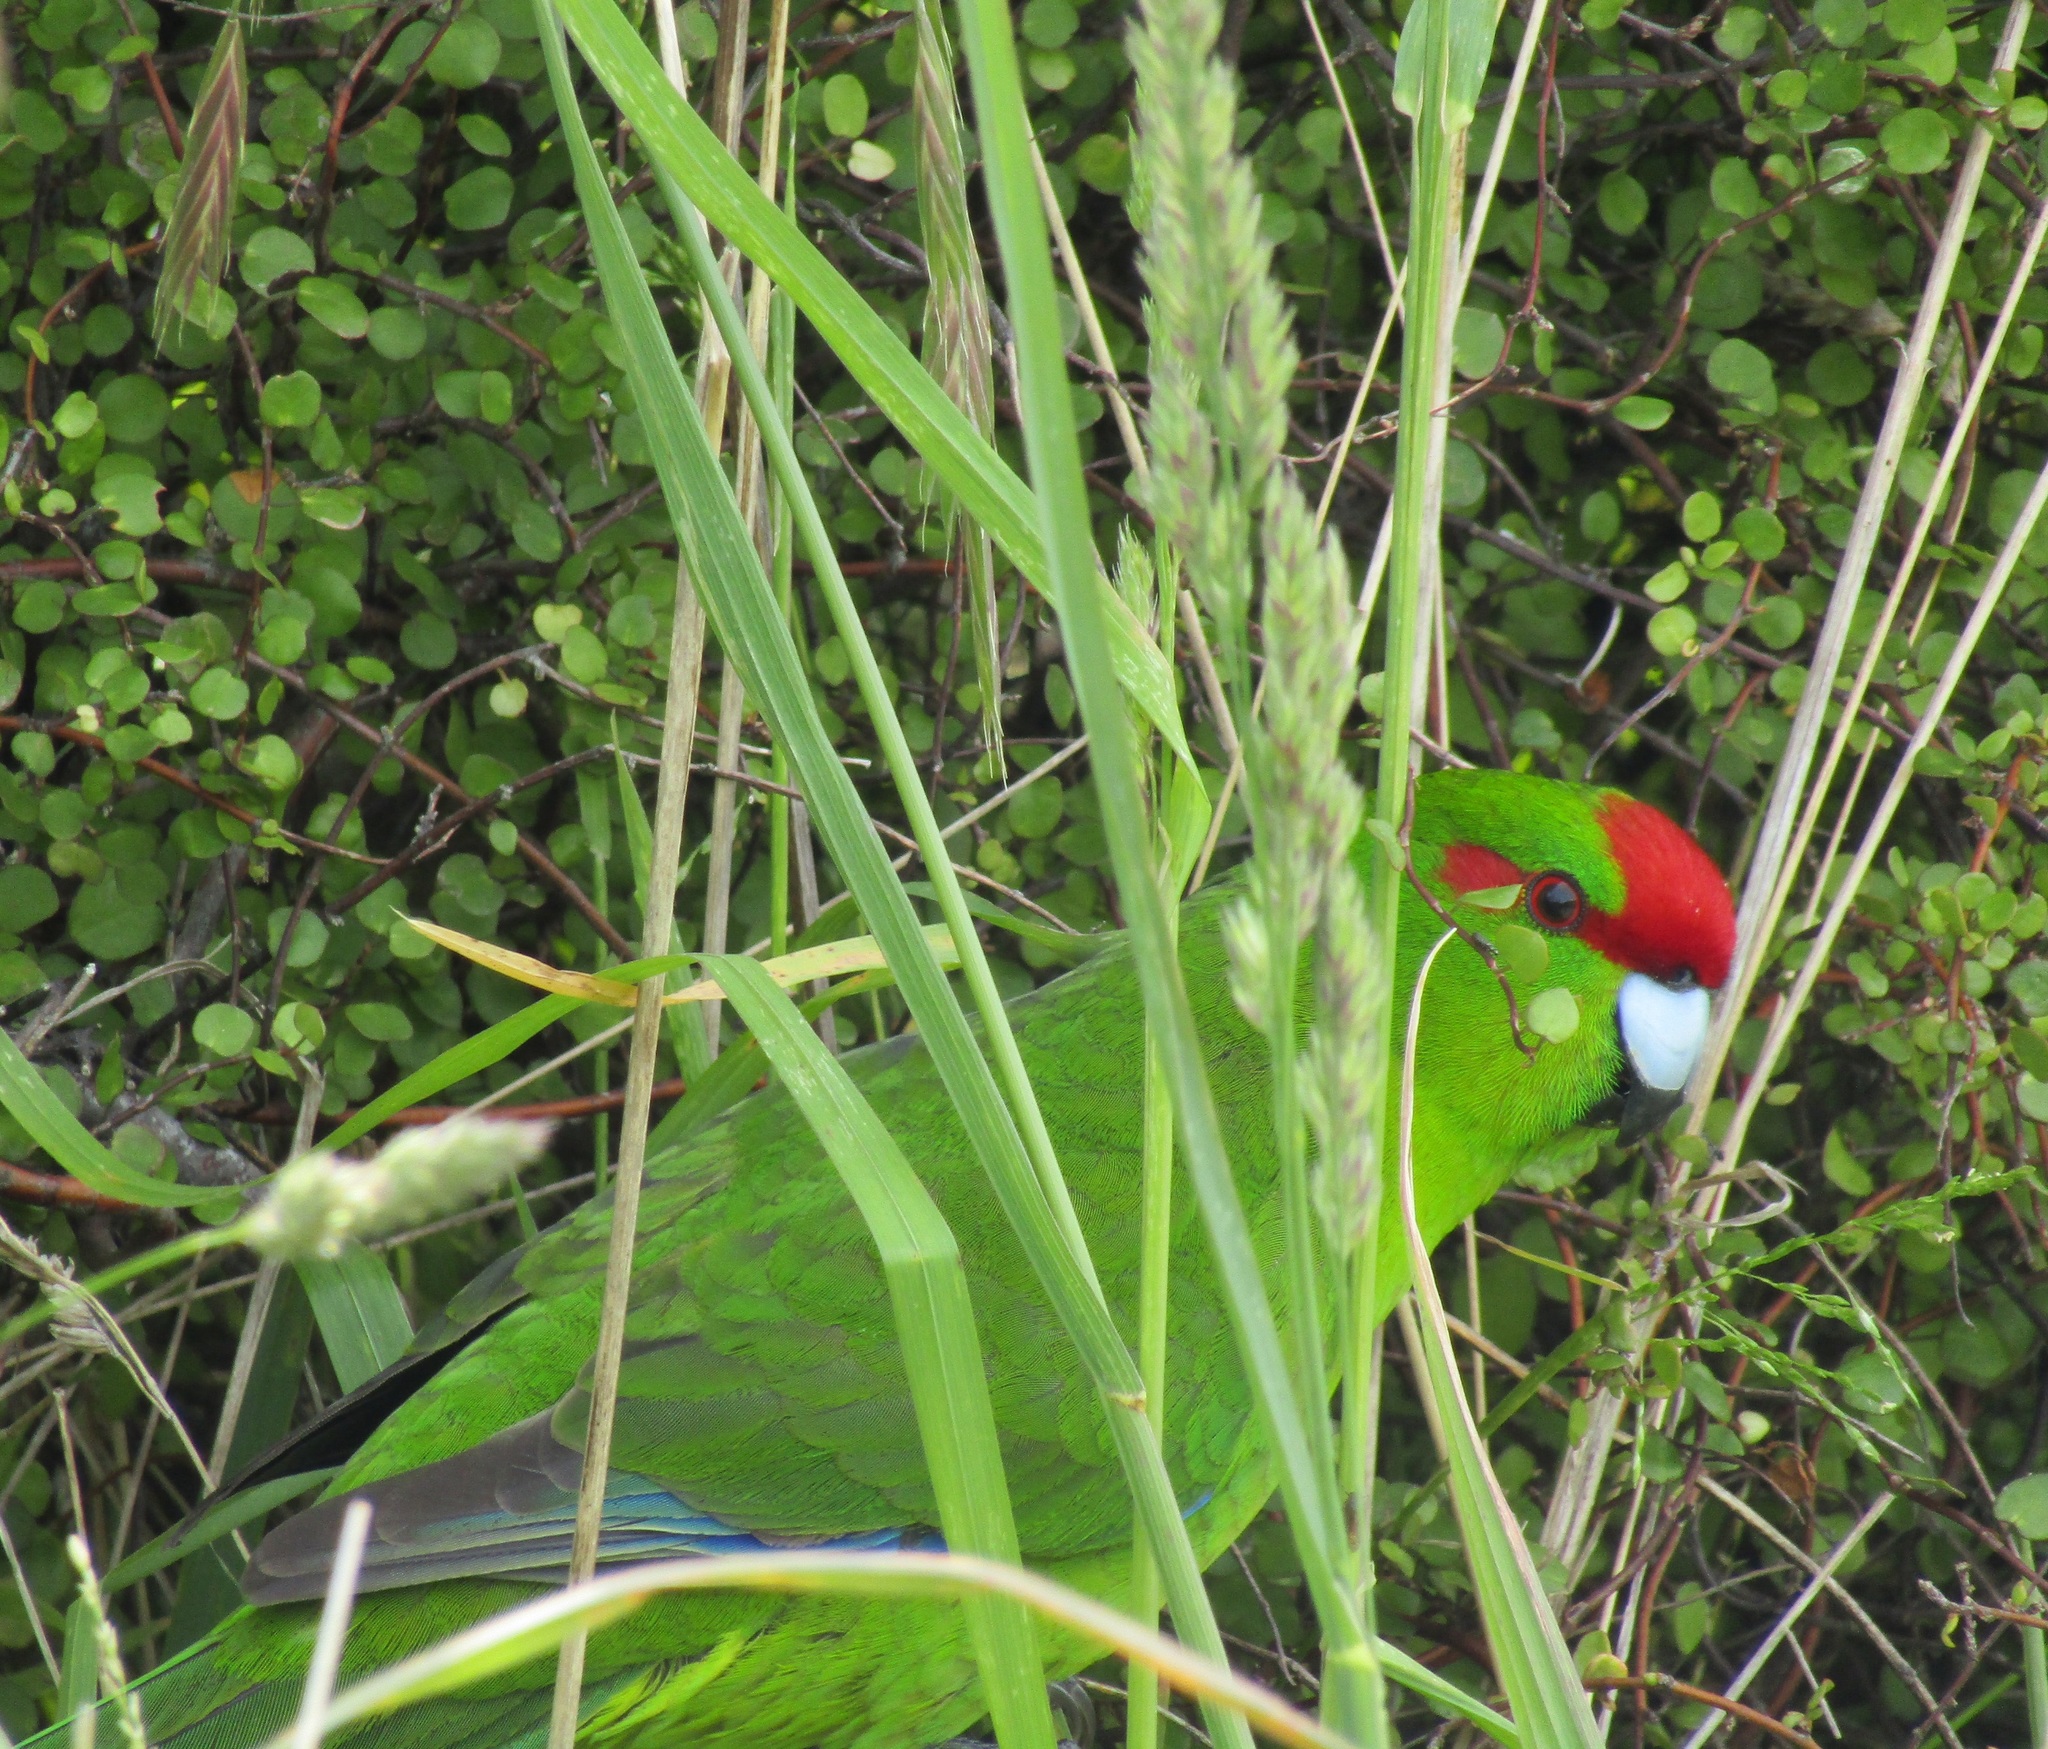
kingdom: Animalia
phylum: Chordata
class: Aves
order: Psittaciformes
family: Psittacidae
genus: Cyanoramphus
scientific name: Cyanoramphus novaezelandiae
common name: Red-fronted parakeet
